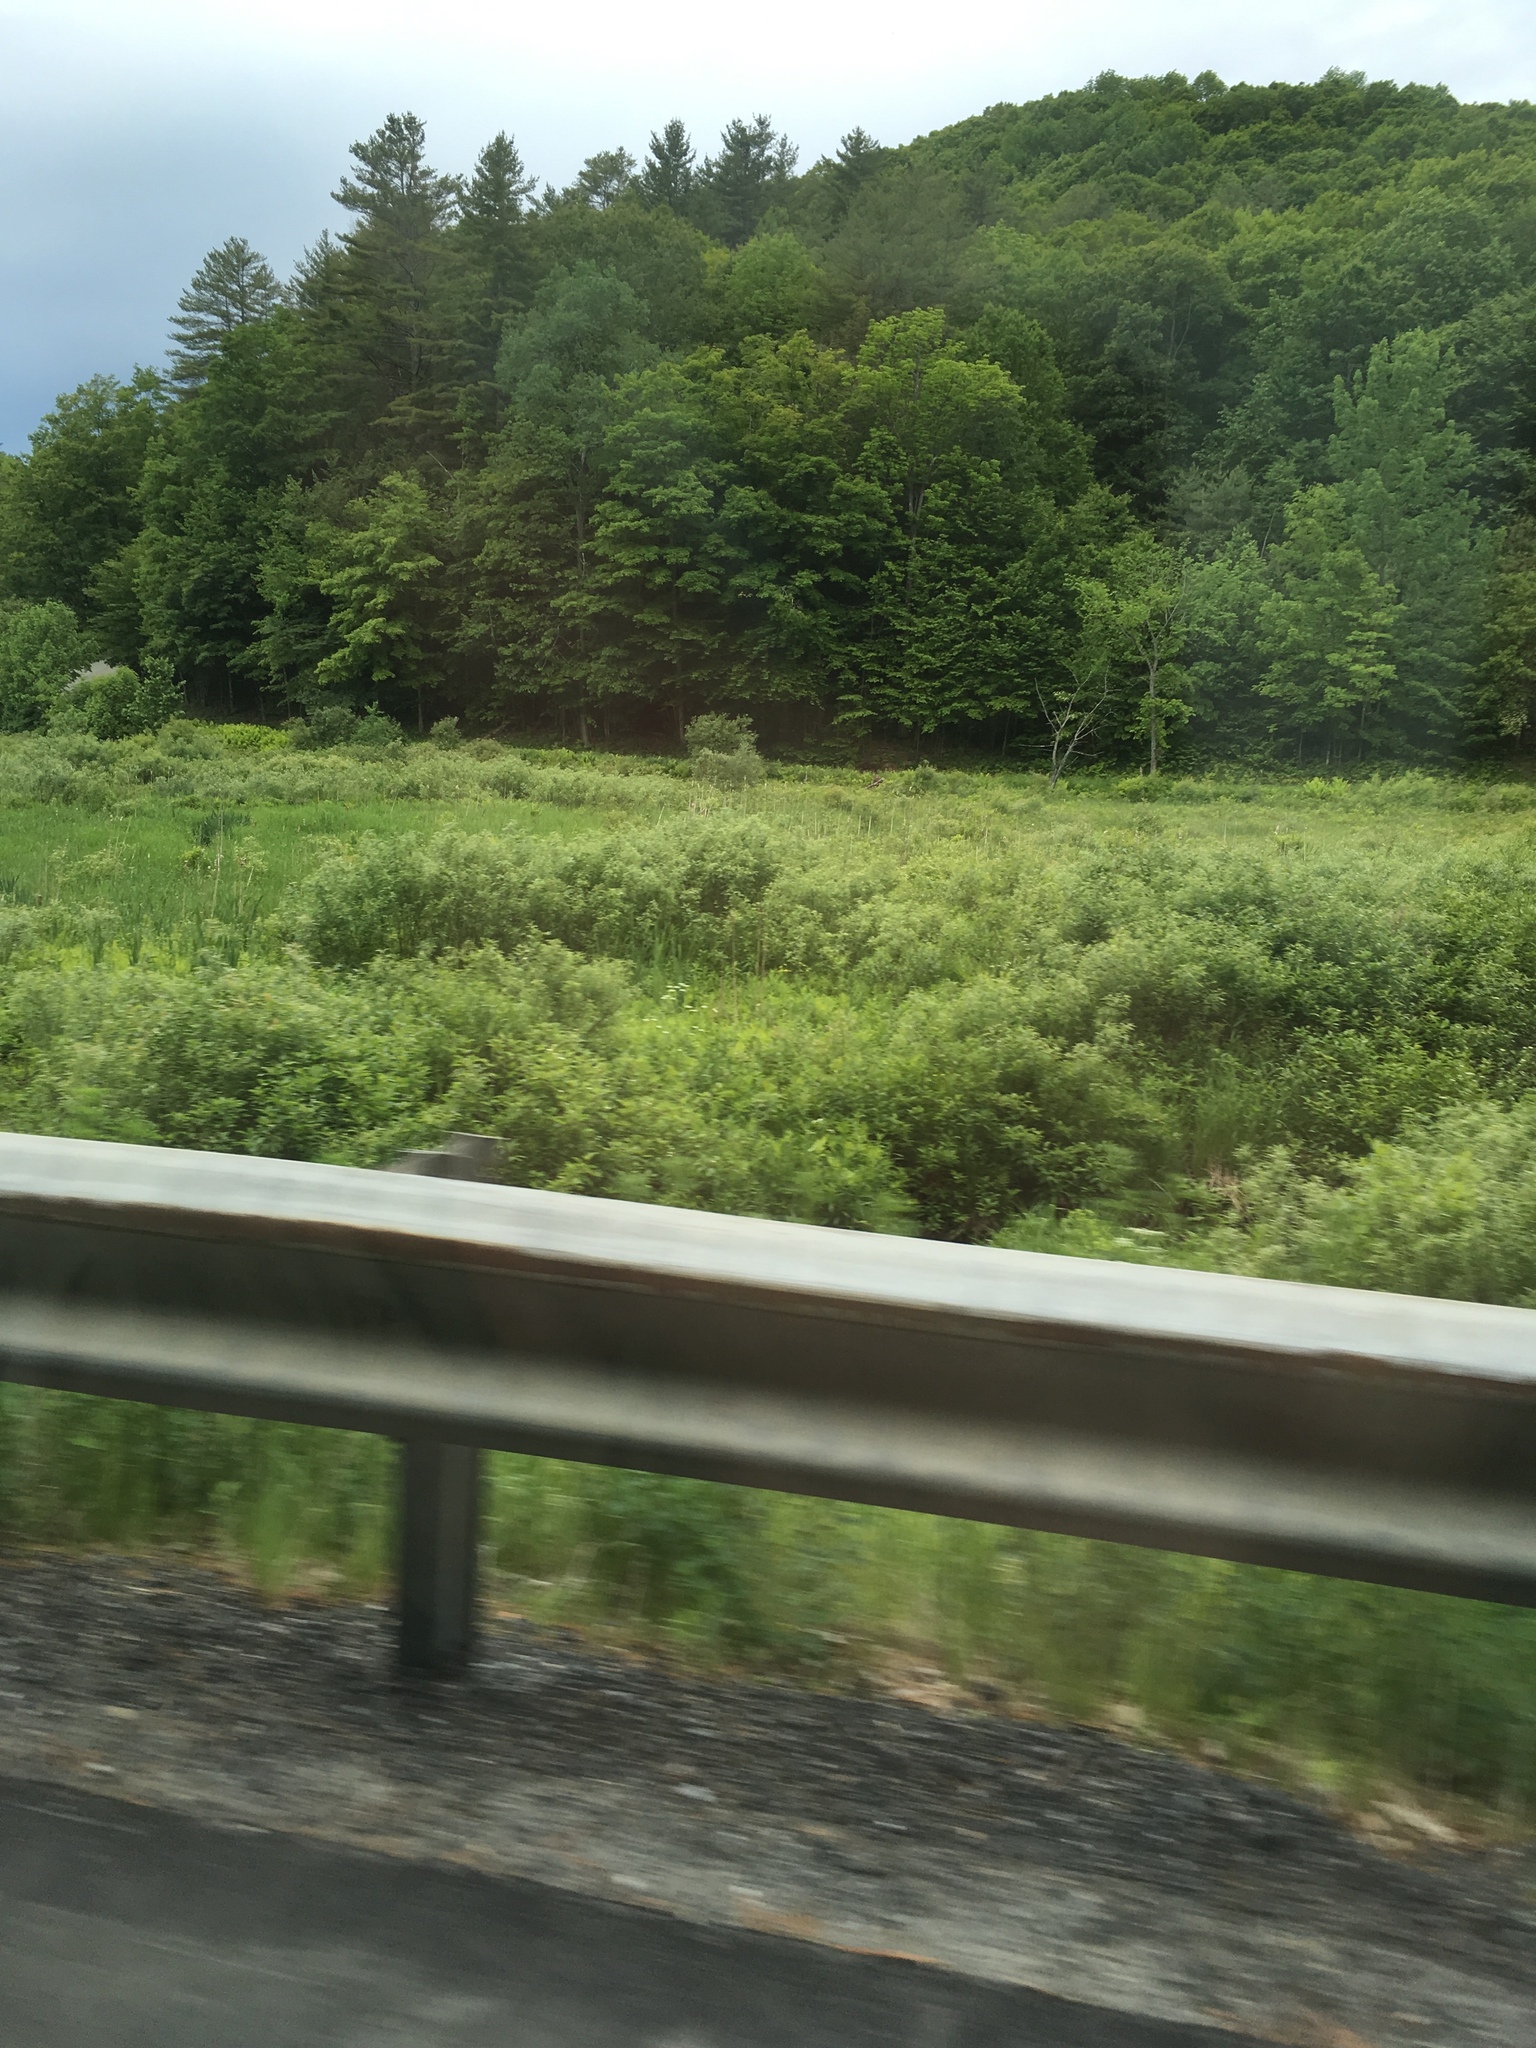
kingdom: Plantae
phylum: Tracheophyta
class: Pinopsida
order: Pinales
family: Pinaceae
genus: Pinus
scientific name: Pinus strobus
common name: Weymouth pine
